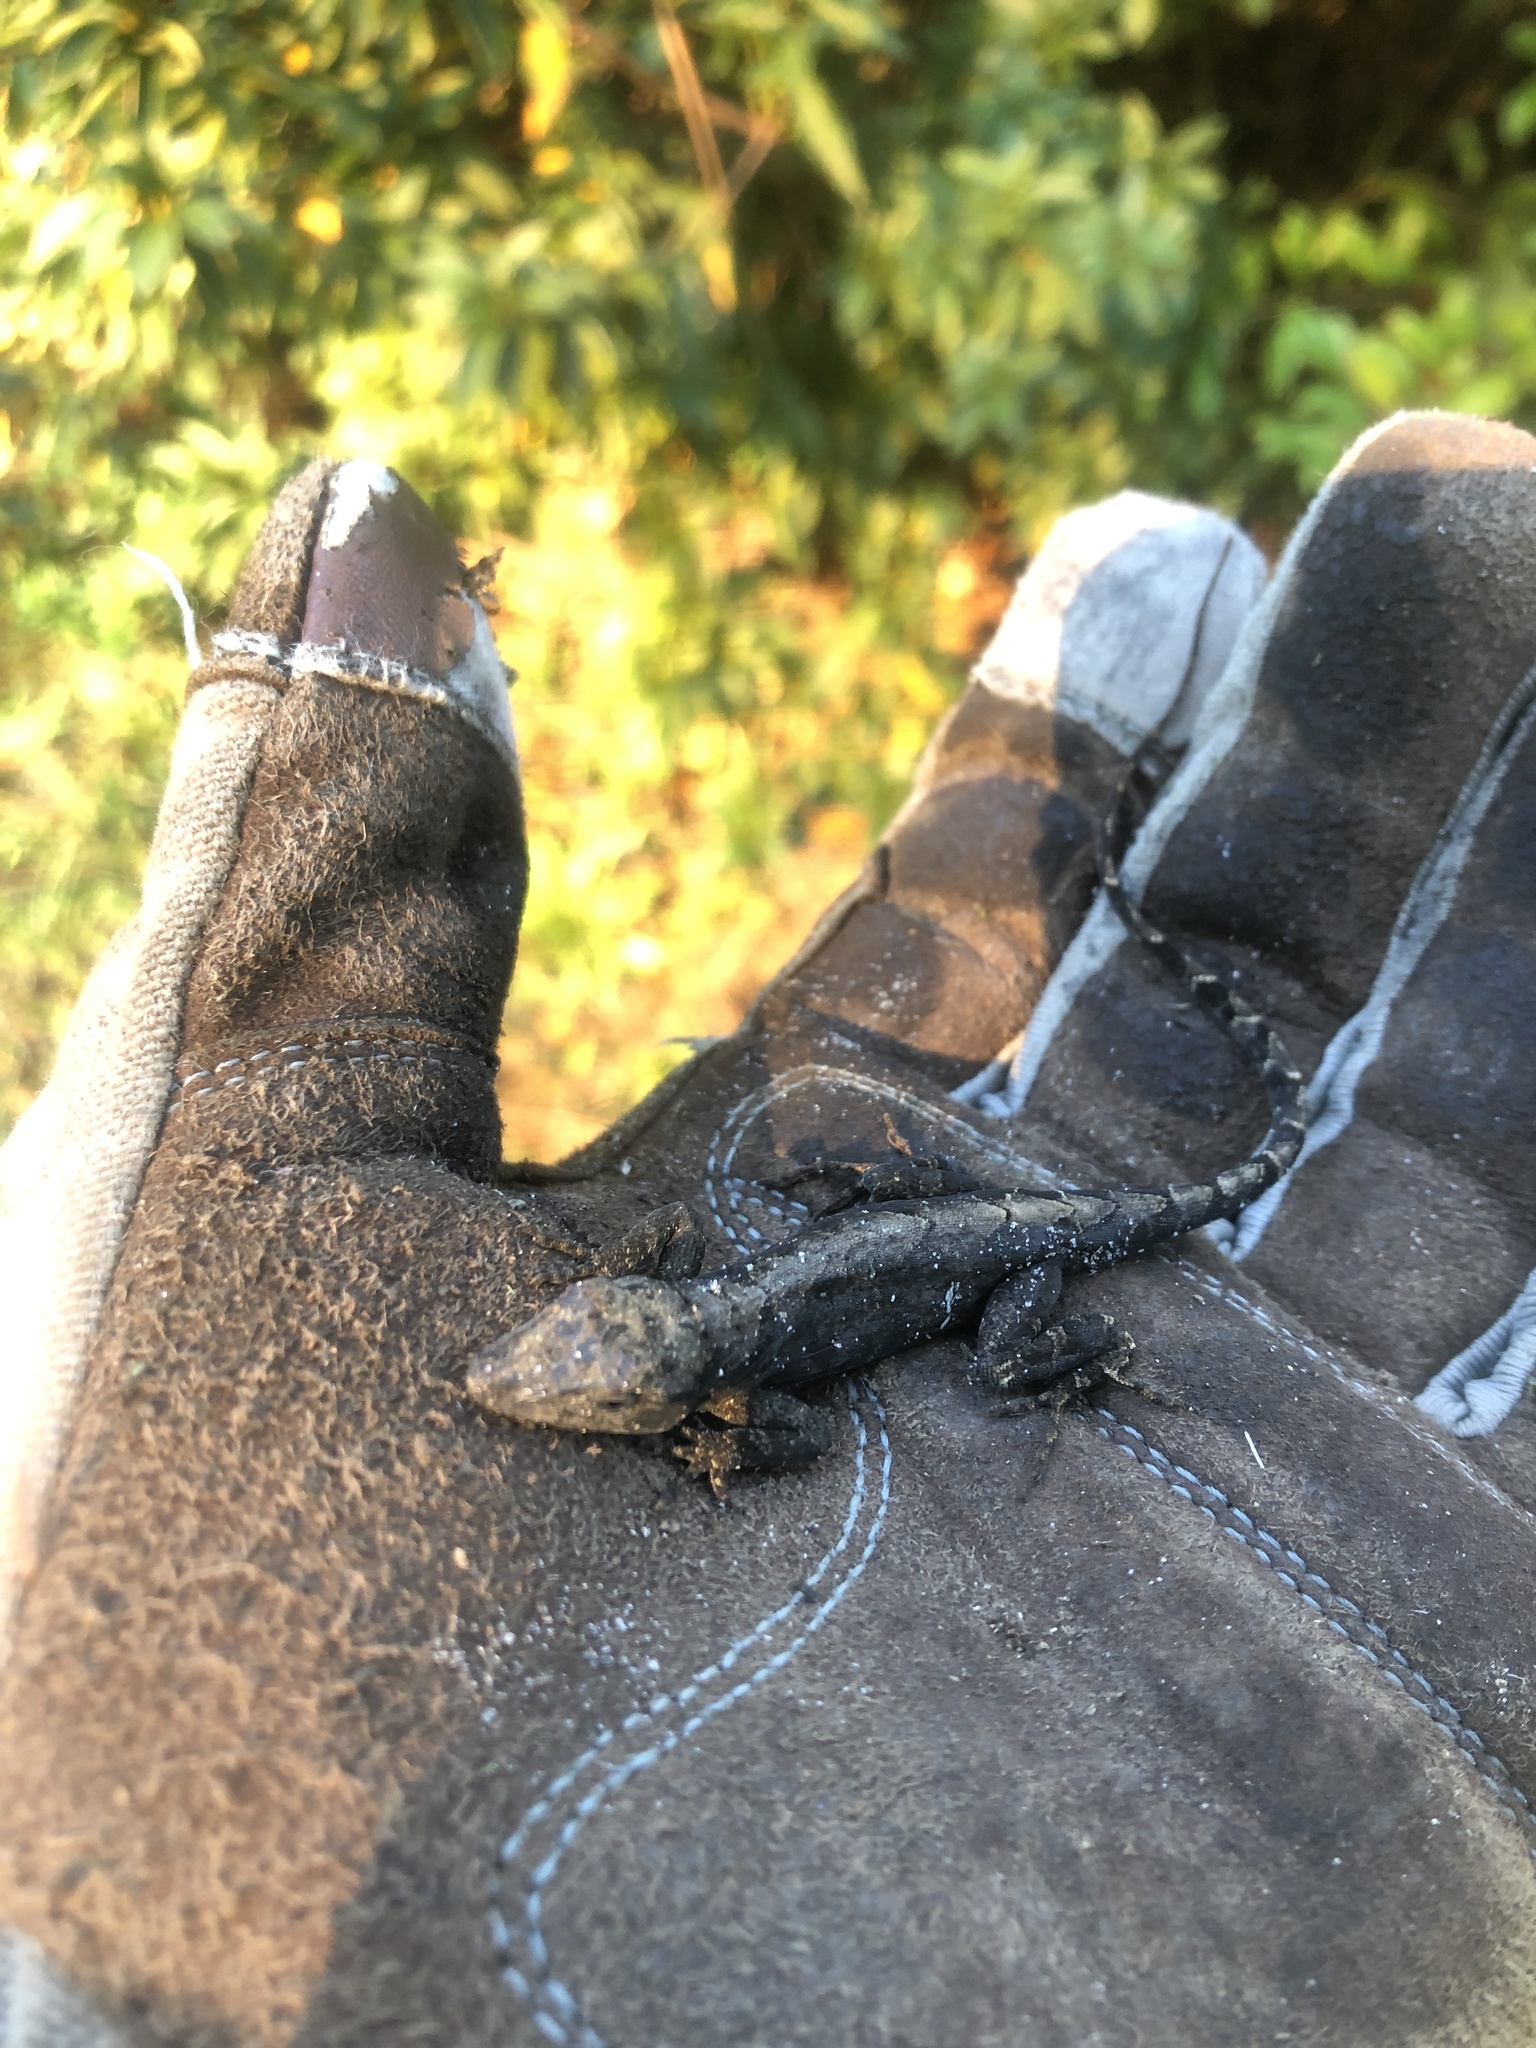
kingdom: Animalia
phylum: Chordata
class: Squamata
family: Dactyloidae
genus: Anolis
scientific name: Anolis sagrei
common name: Brown anole
